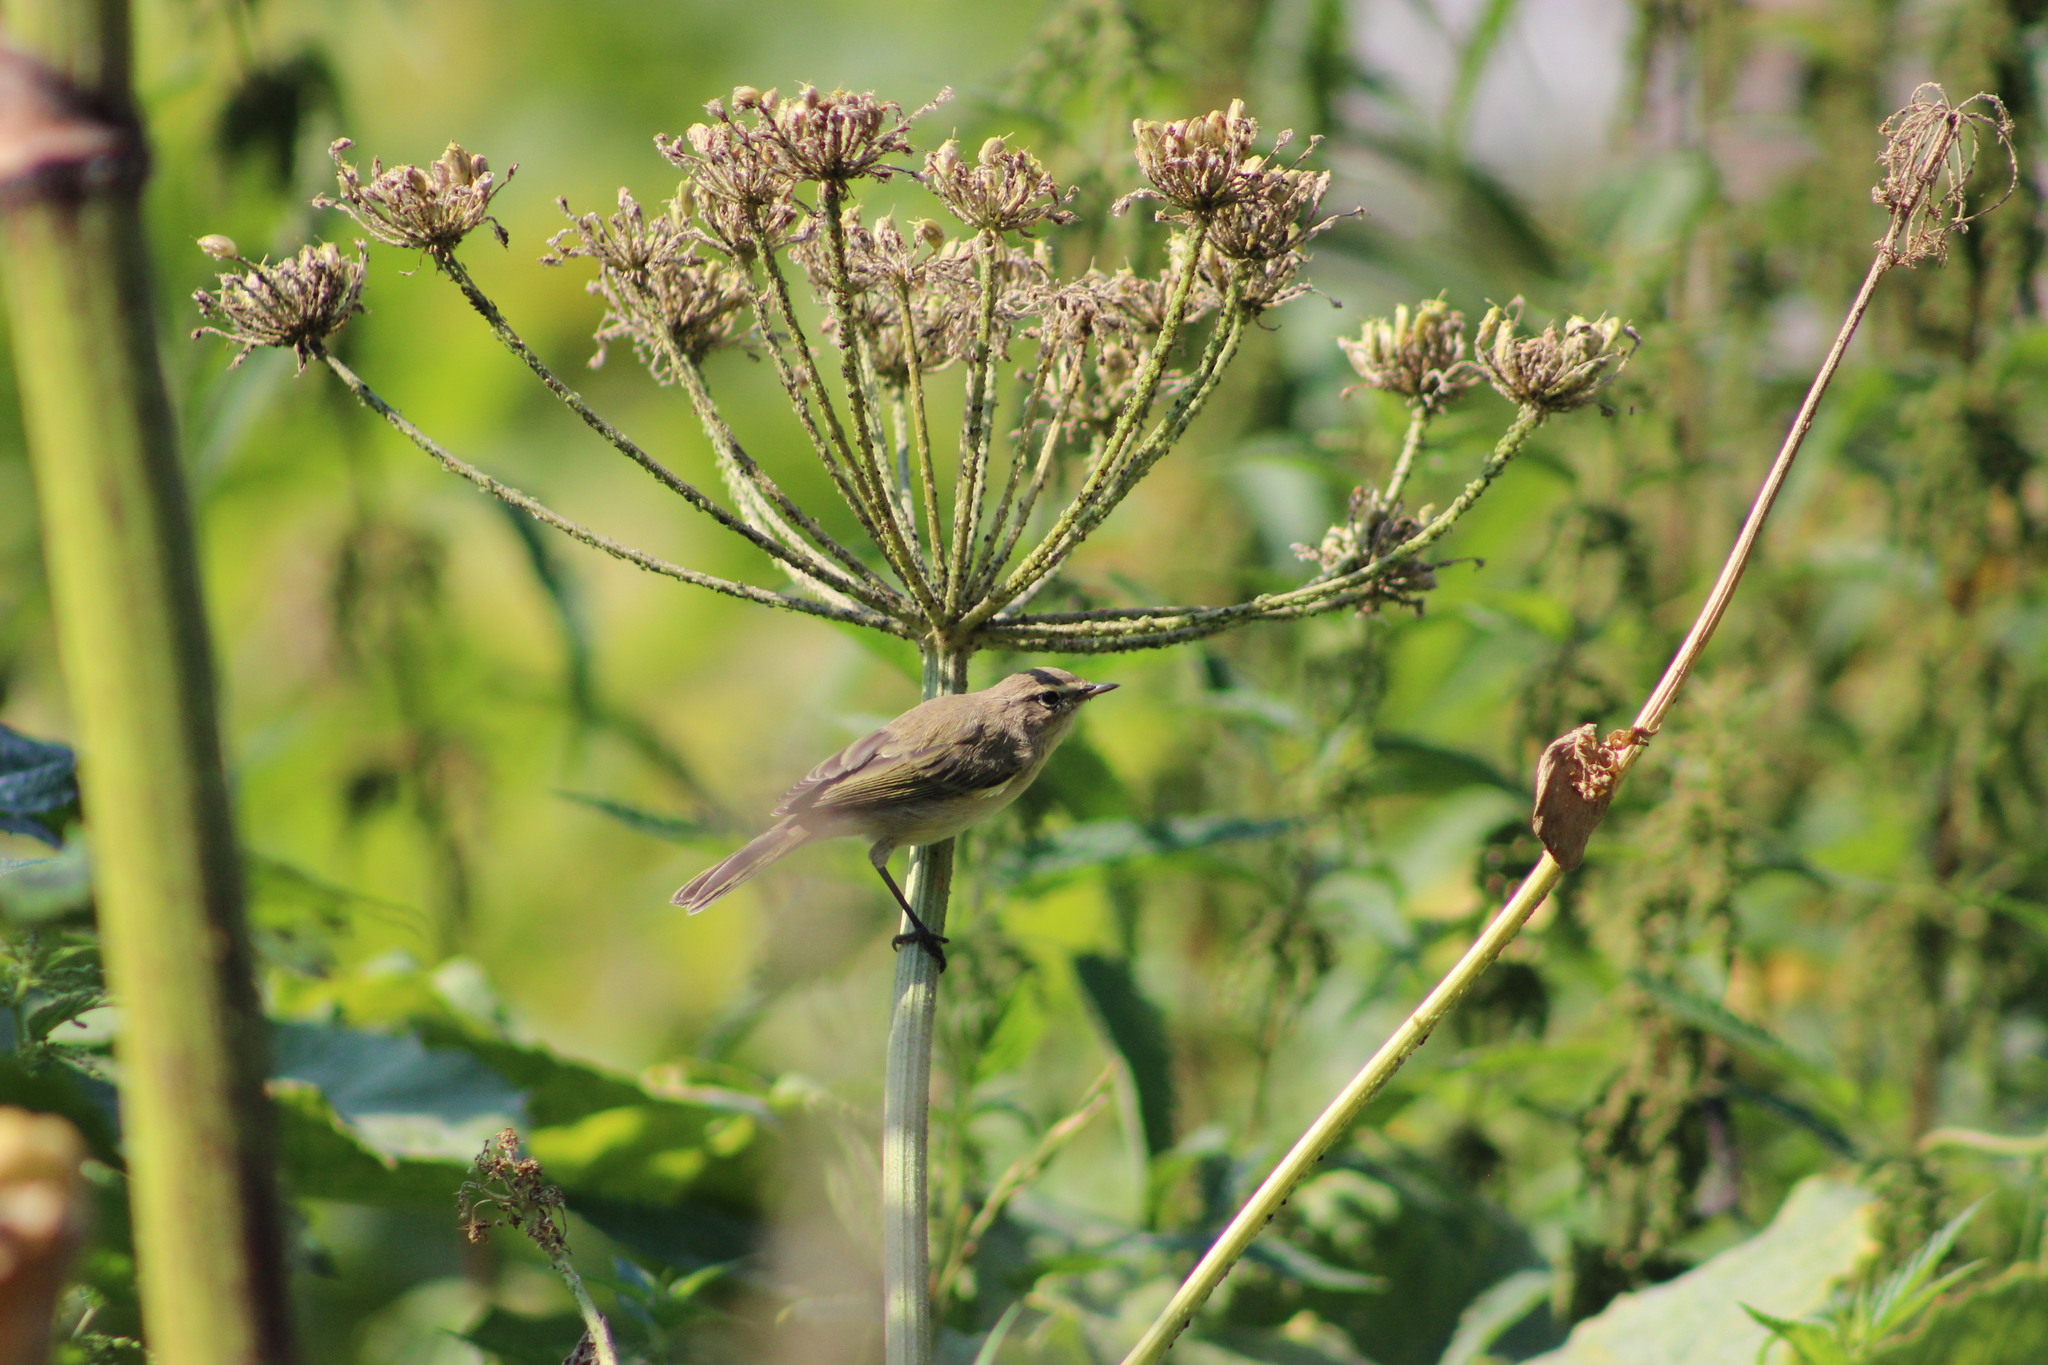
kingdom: Animalia
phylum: Chordata
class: Aves
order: Passeriformes
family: Phylloscopidae
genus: Phylloscopus
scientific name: Phylloscopus collybita
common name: Common chiffchaff
